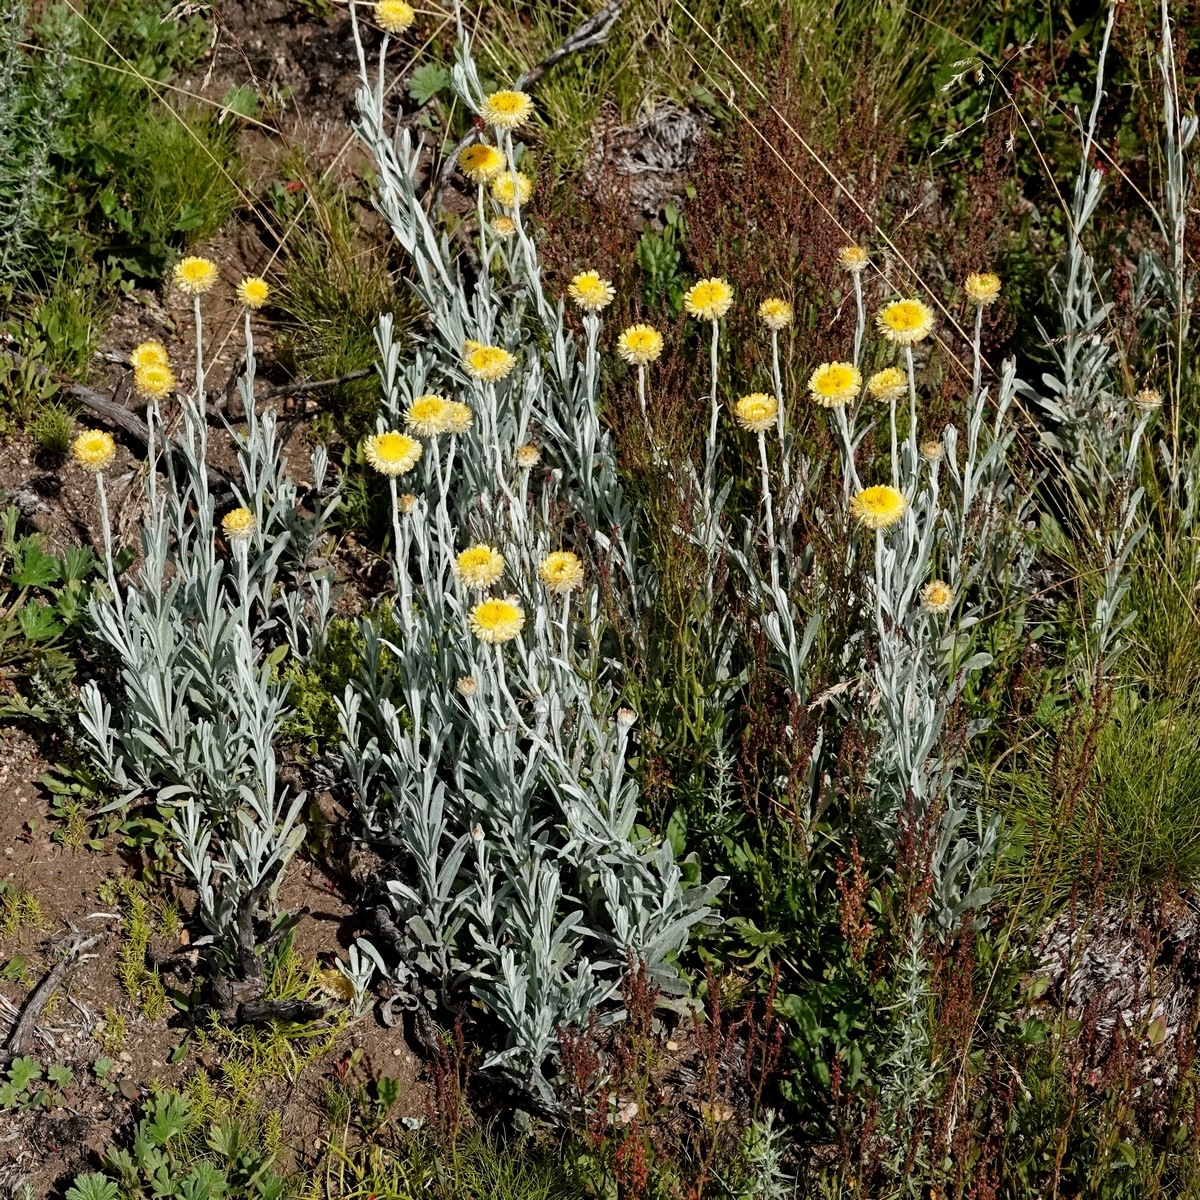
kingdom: Plantae
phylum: Tracheophyta
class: Magnoliopsida
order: Asterales
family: Asteraceae
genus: Coronidium
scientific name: Coronidium monticola
